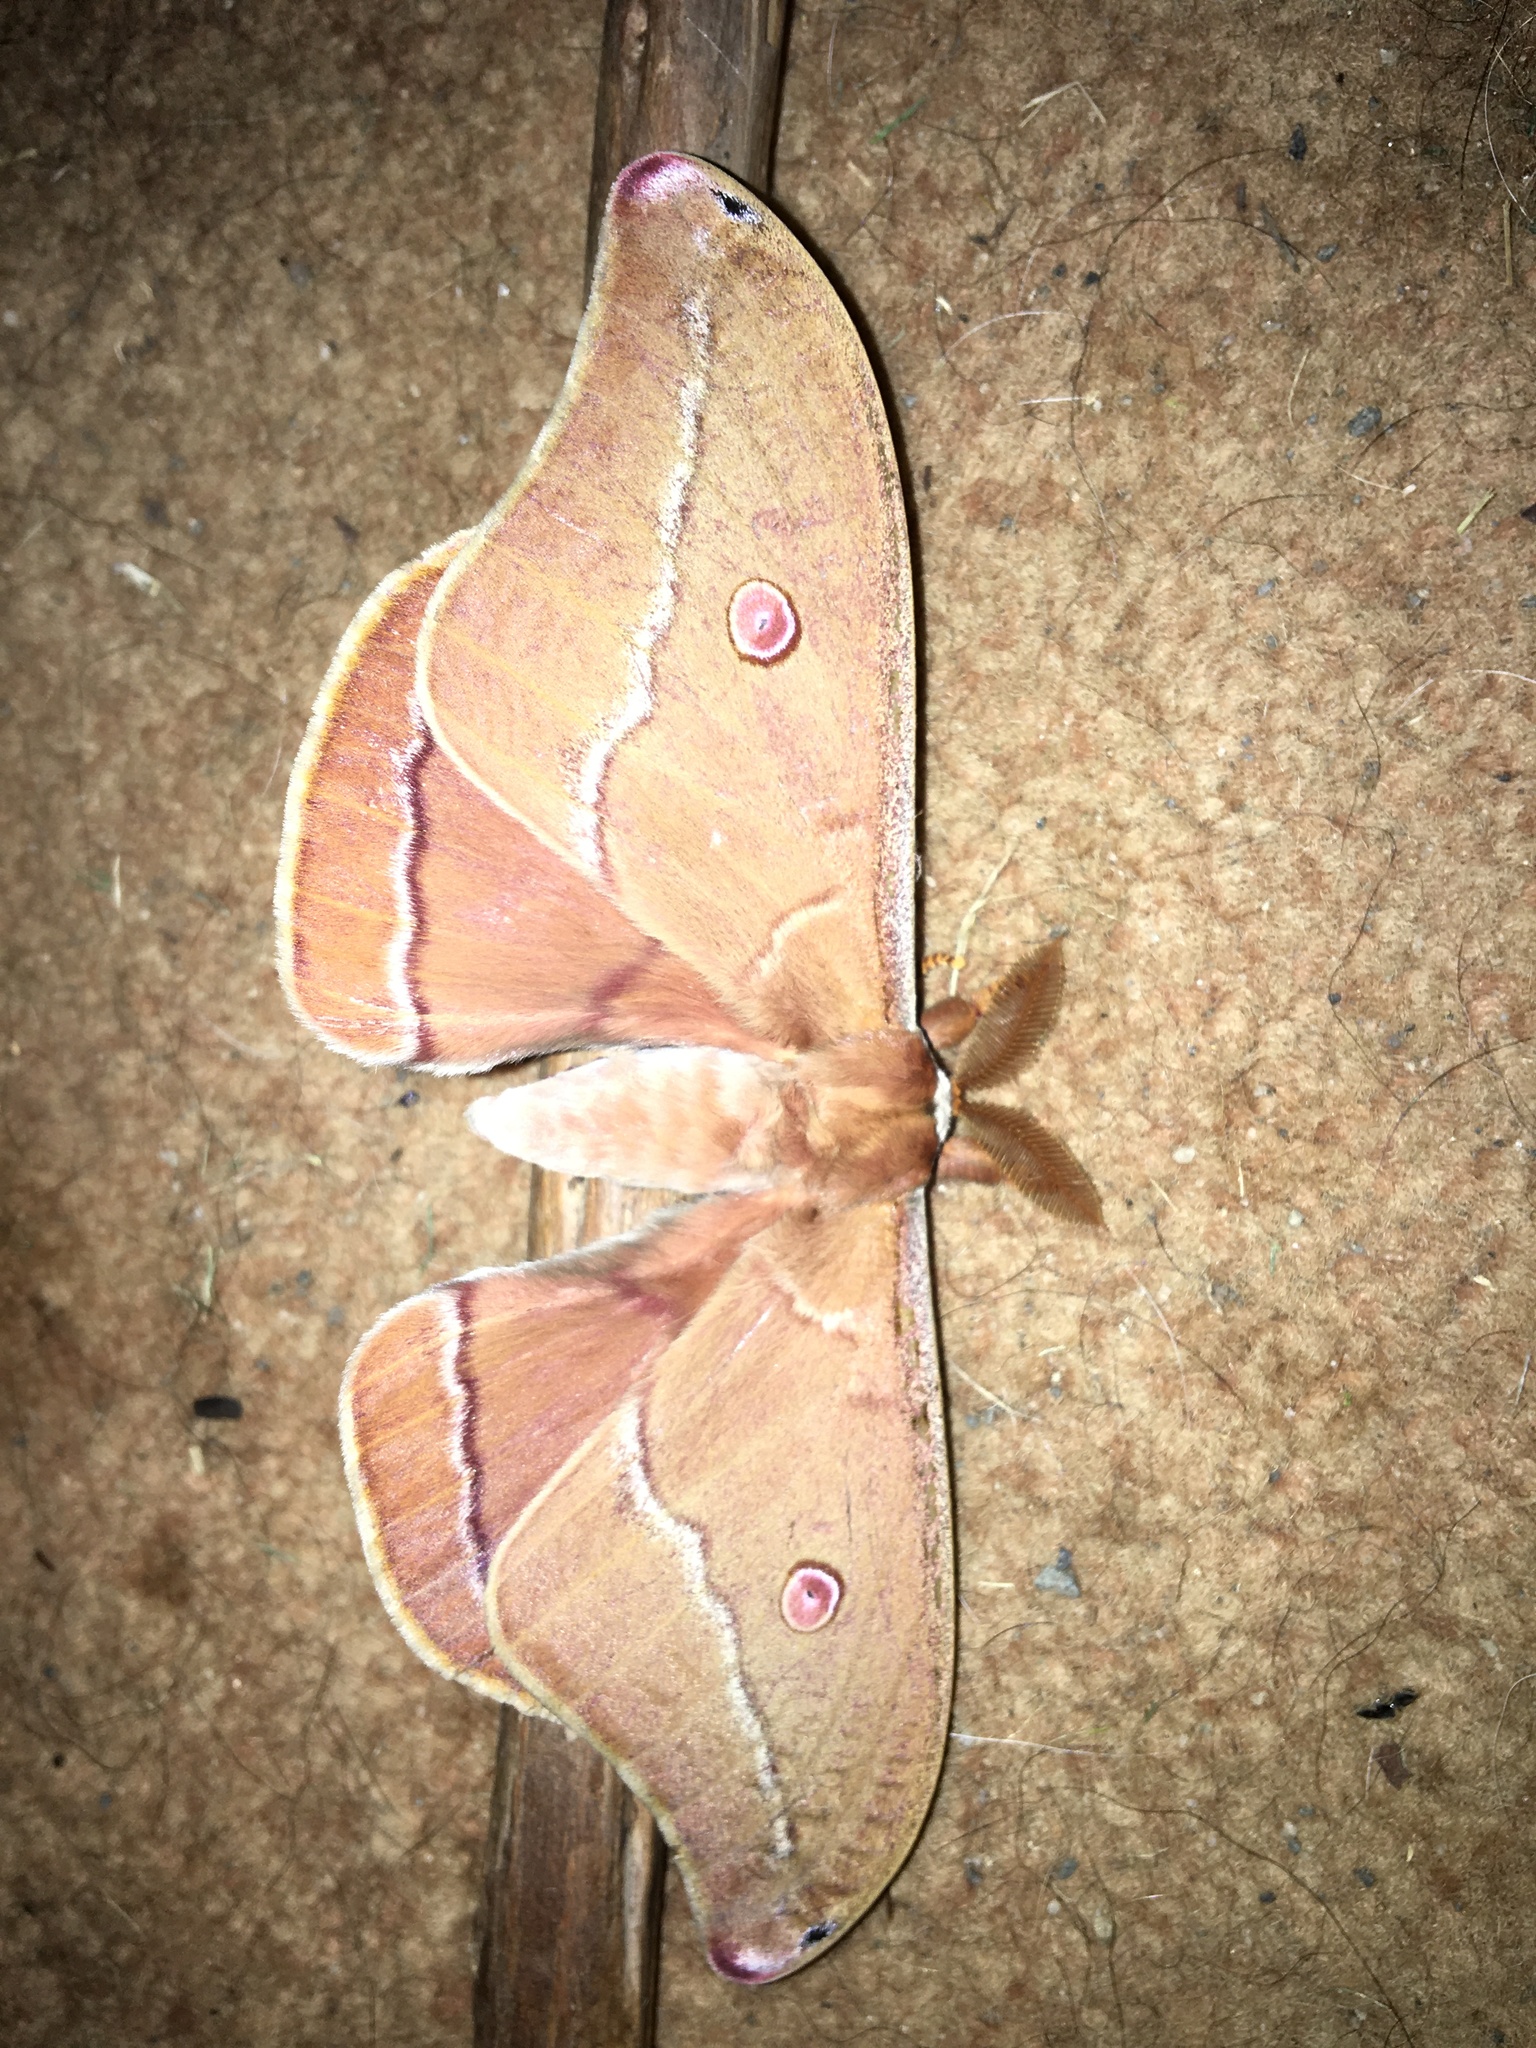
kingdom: Animalia
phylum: Arthropoda
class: Insecta
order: Lepidoptera
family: Saturniidae
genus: Opodiphthera
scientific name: Opodiphthera
